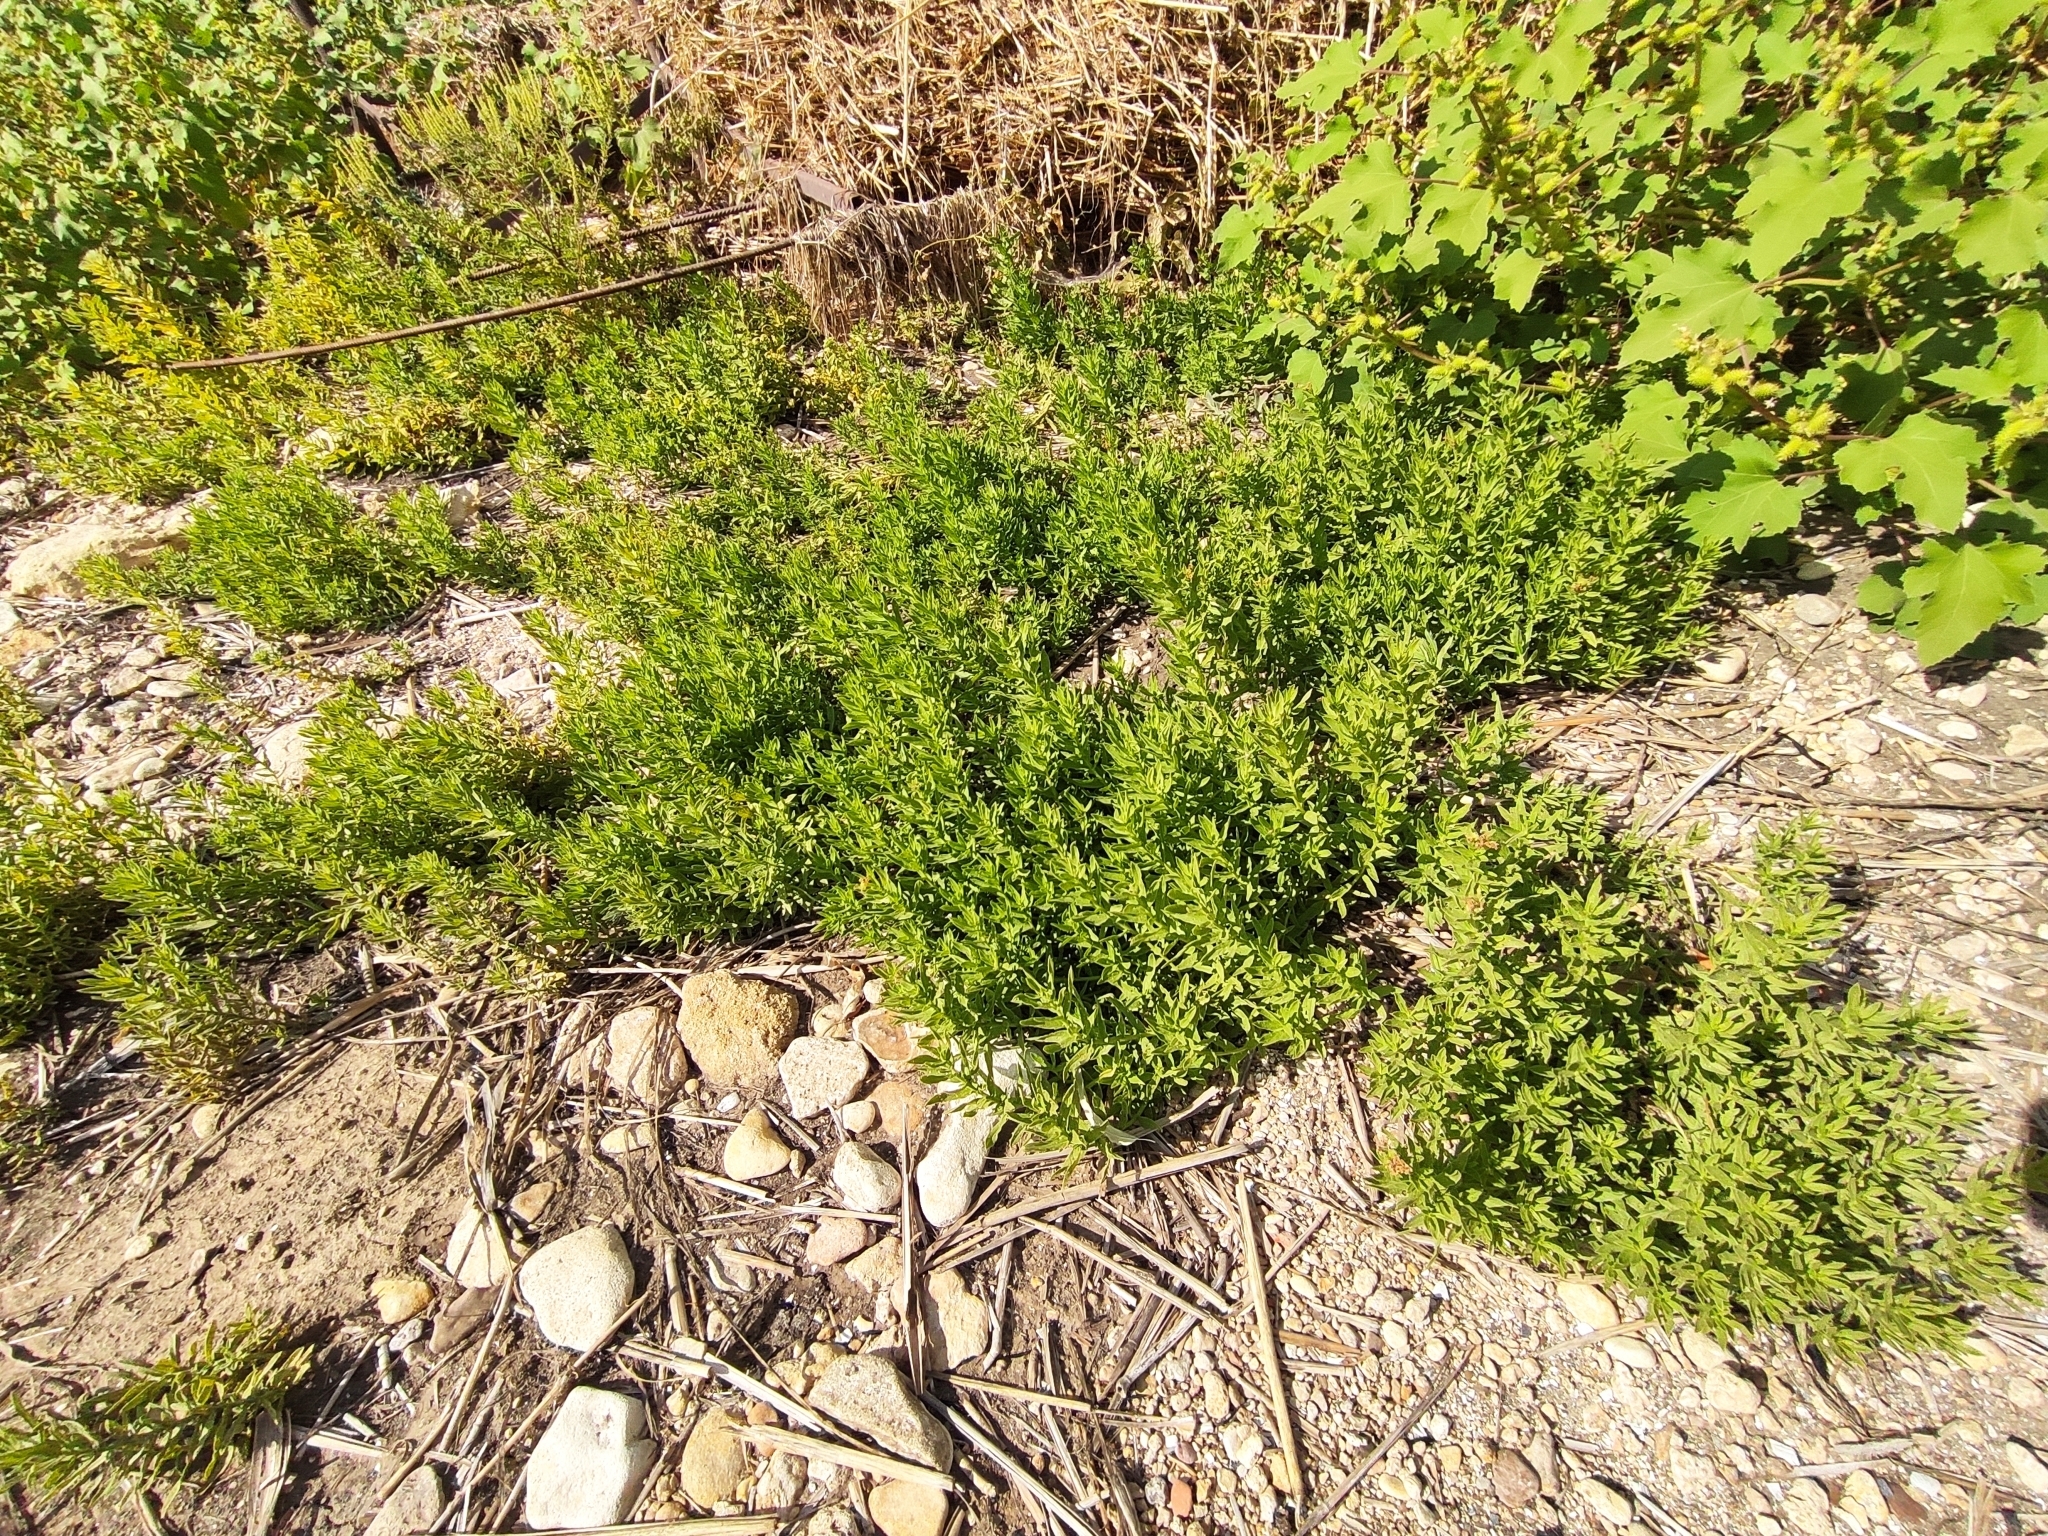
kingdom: Plantae
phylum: Tracheophyta
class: Magnoliopsida
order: Boraginales
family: Heliotropiaceae
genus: Tournefortia
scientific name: Tournefortia sibirica
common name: Siberian sea rosemary
